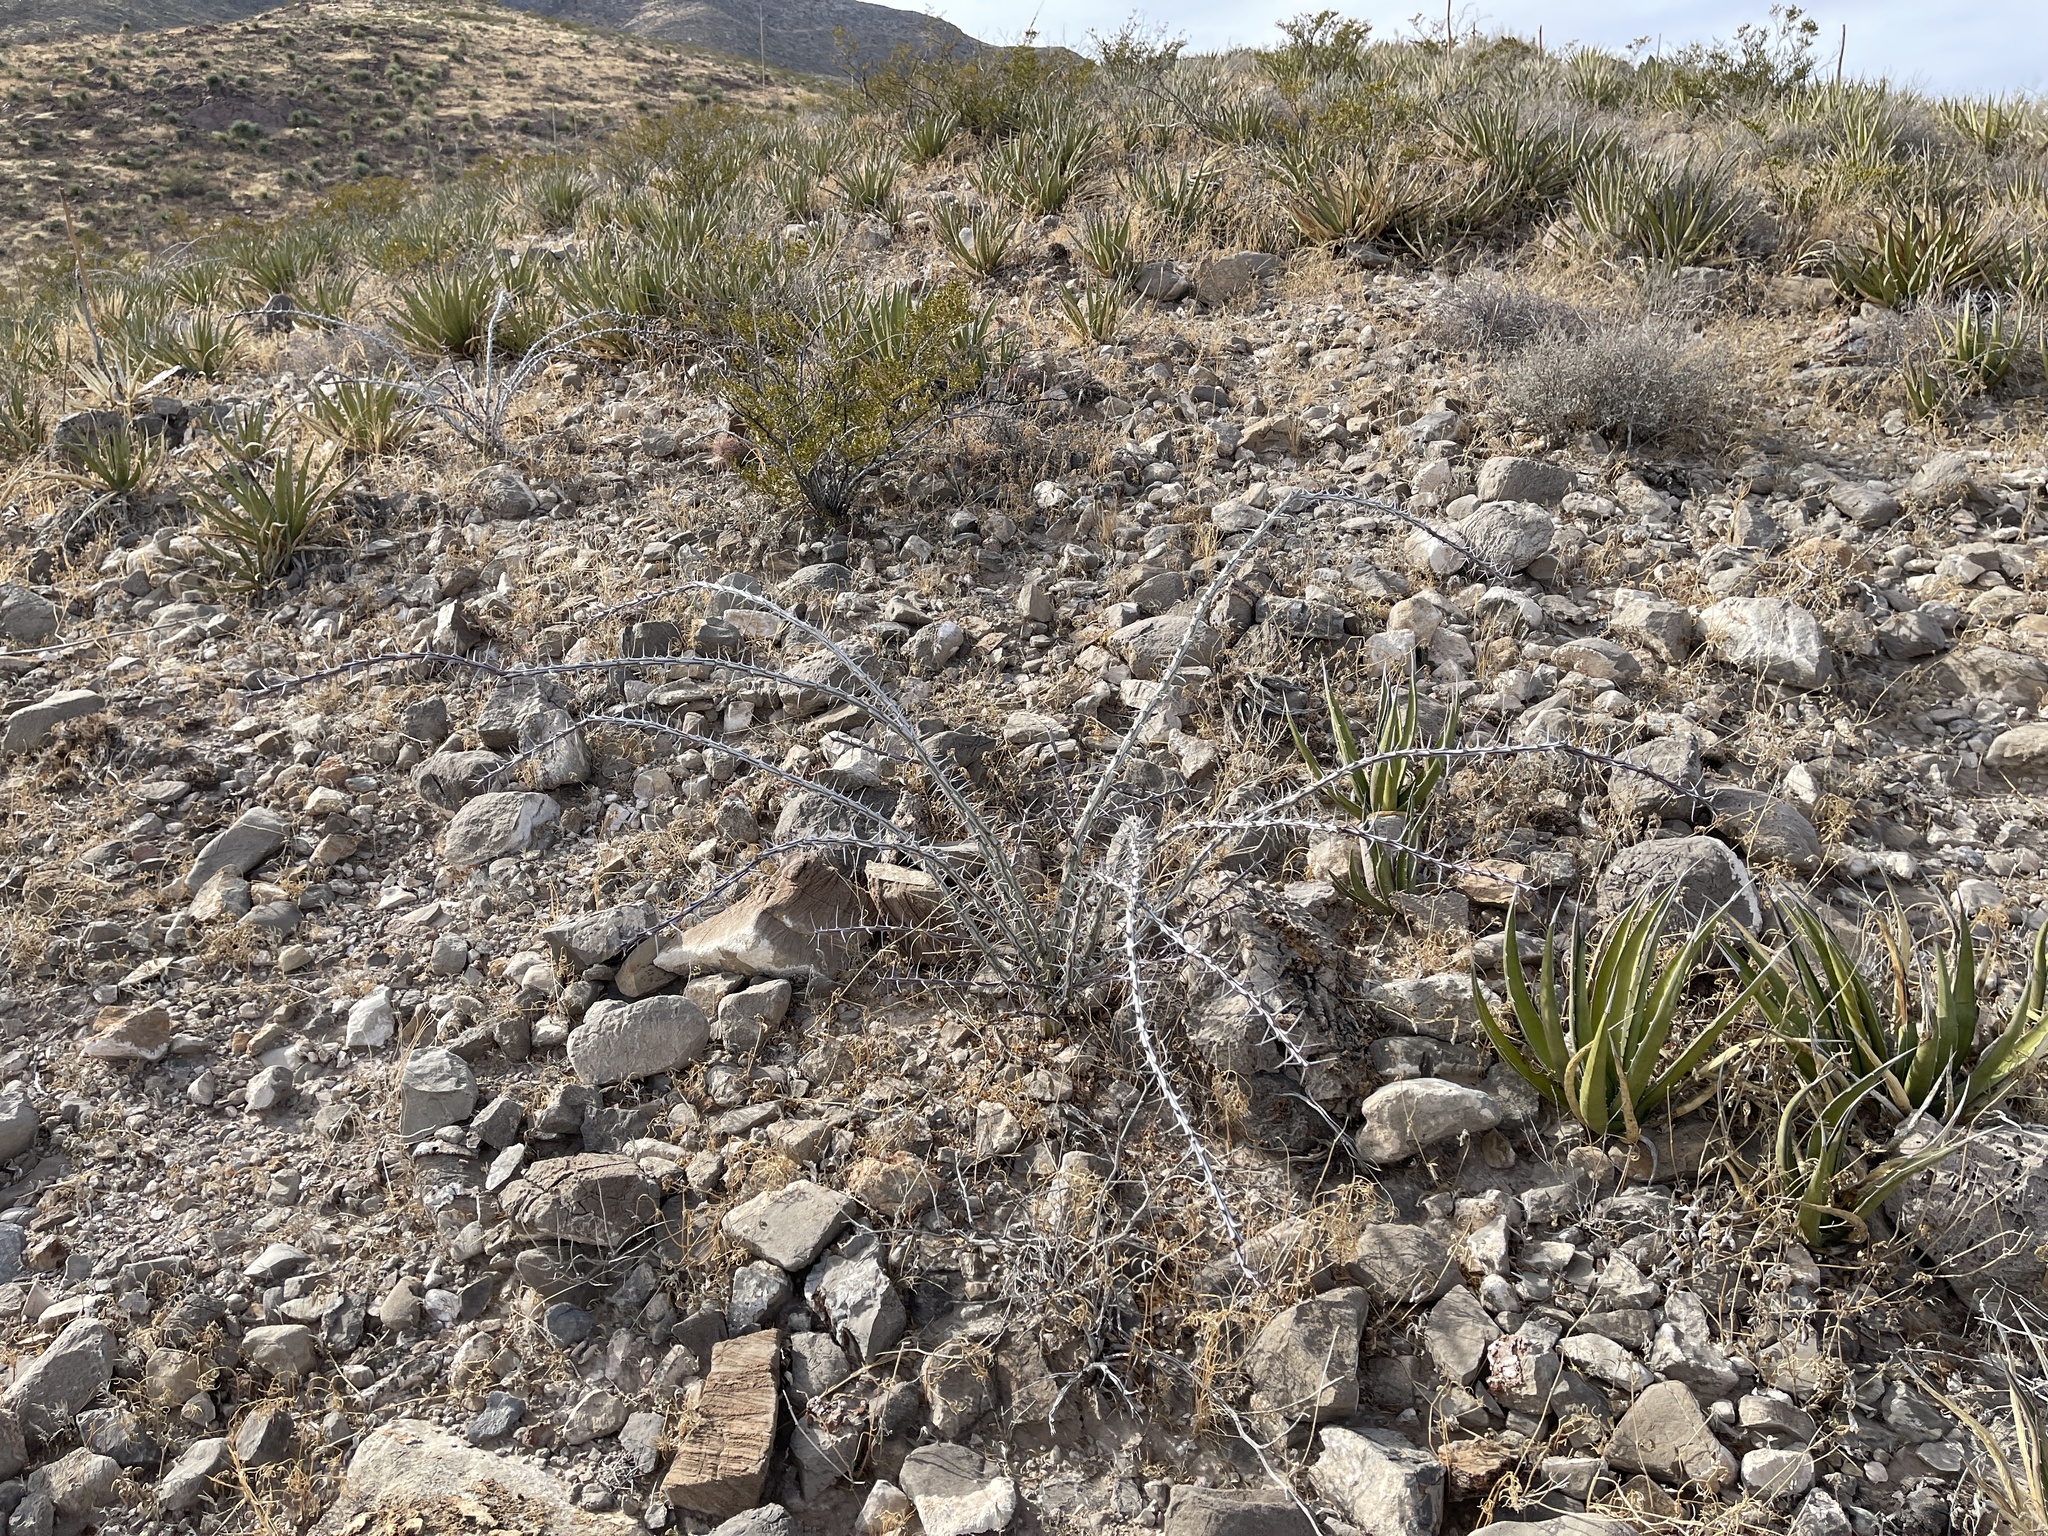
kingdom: Plantae
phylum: Tracheophyta
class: Magnoliopsida
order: Ericales
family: Fouquieriaceae
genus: Fouquieria
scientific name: Fouquieria splendens
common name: Vine-cactus
